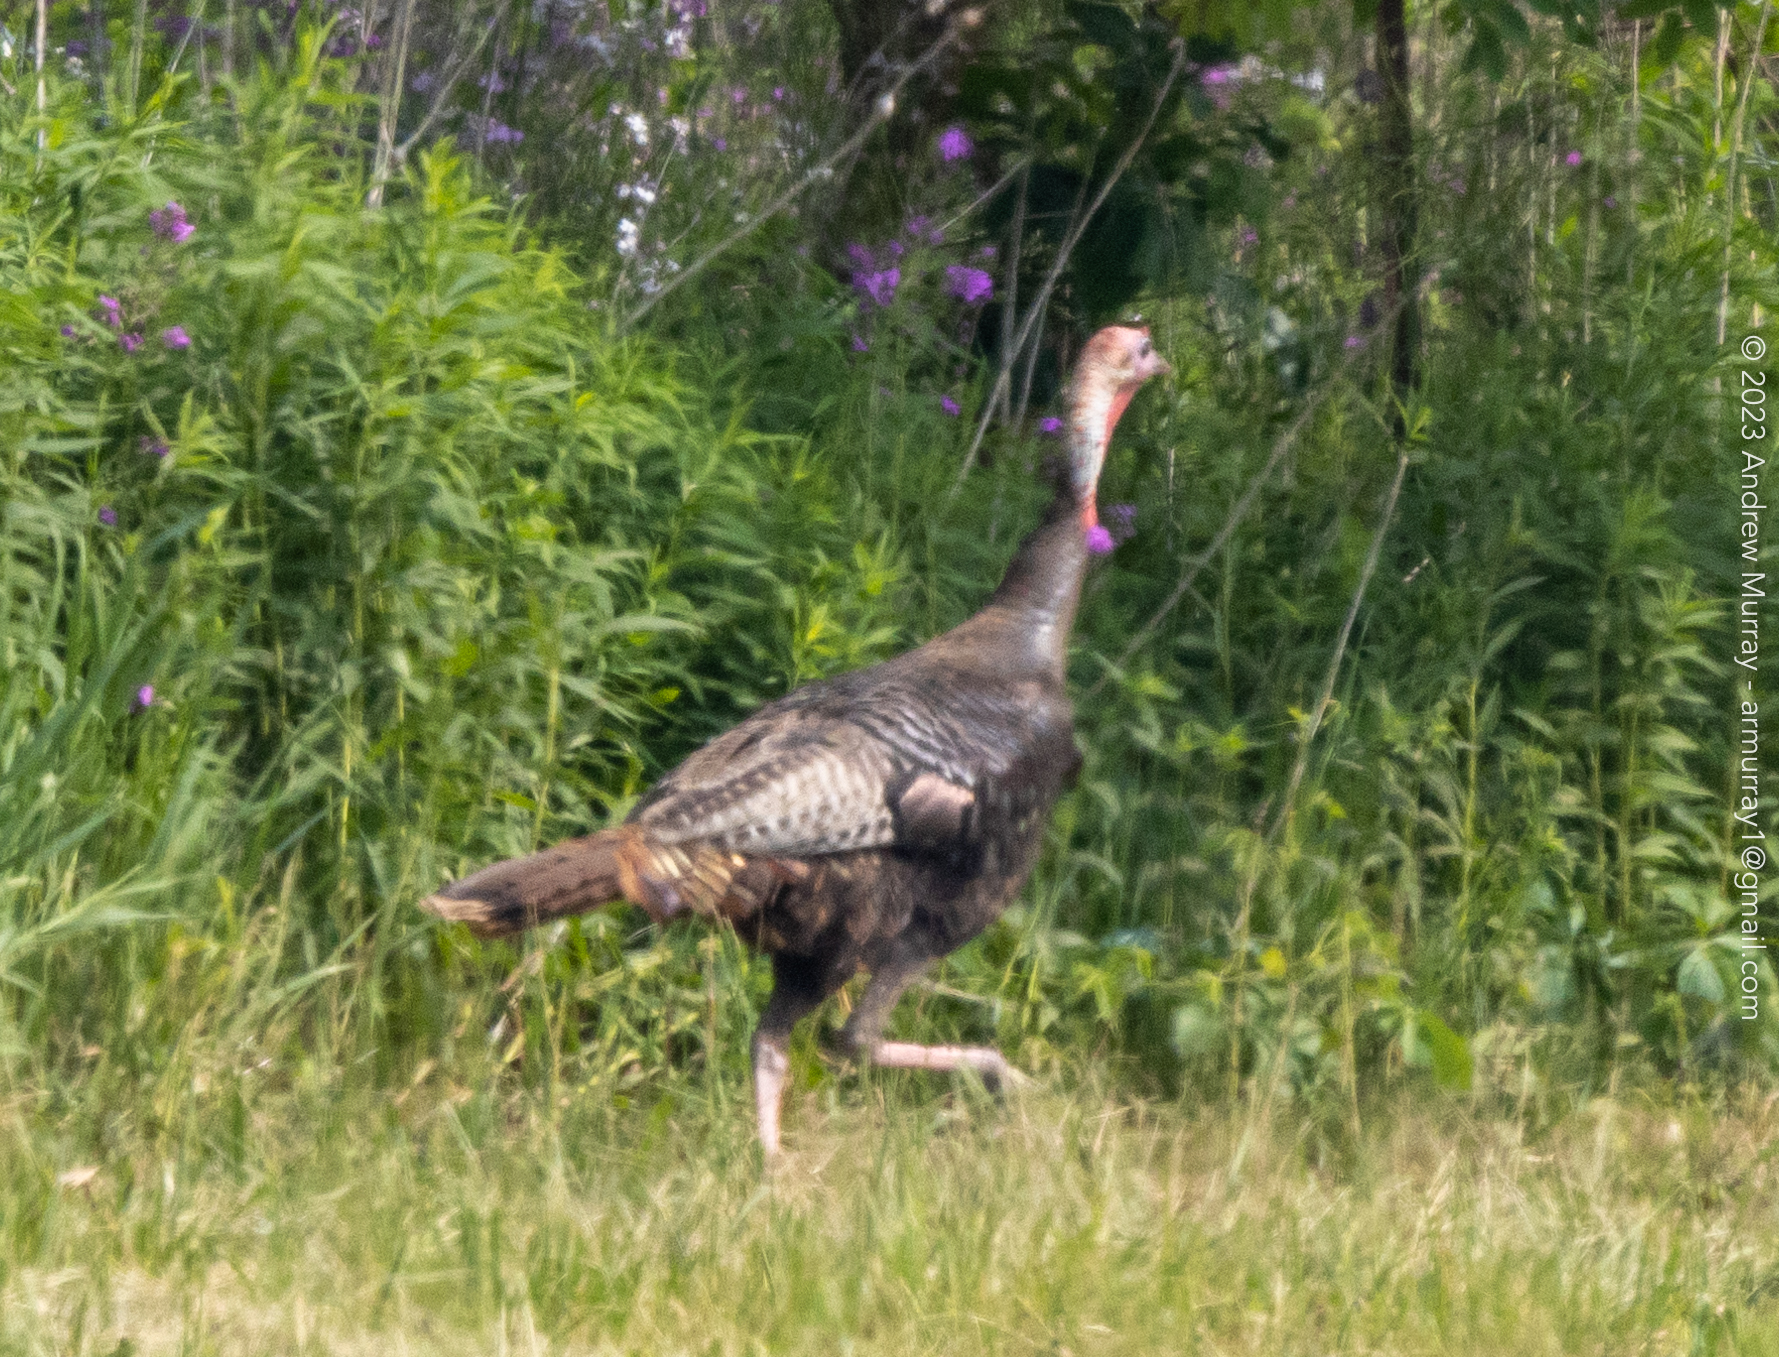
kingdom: Animalia
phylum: Chordata
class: Aves
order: Galliformes
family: Phasianidae
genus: Meleagris
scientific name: Meleagris gallopavo
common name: Wild turkey
